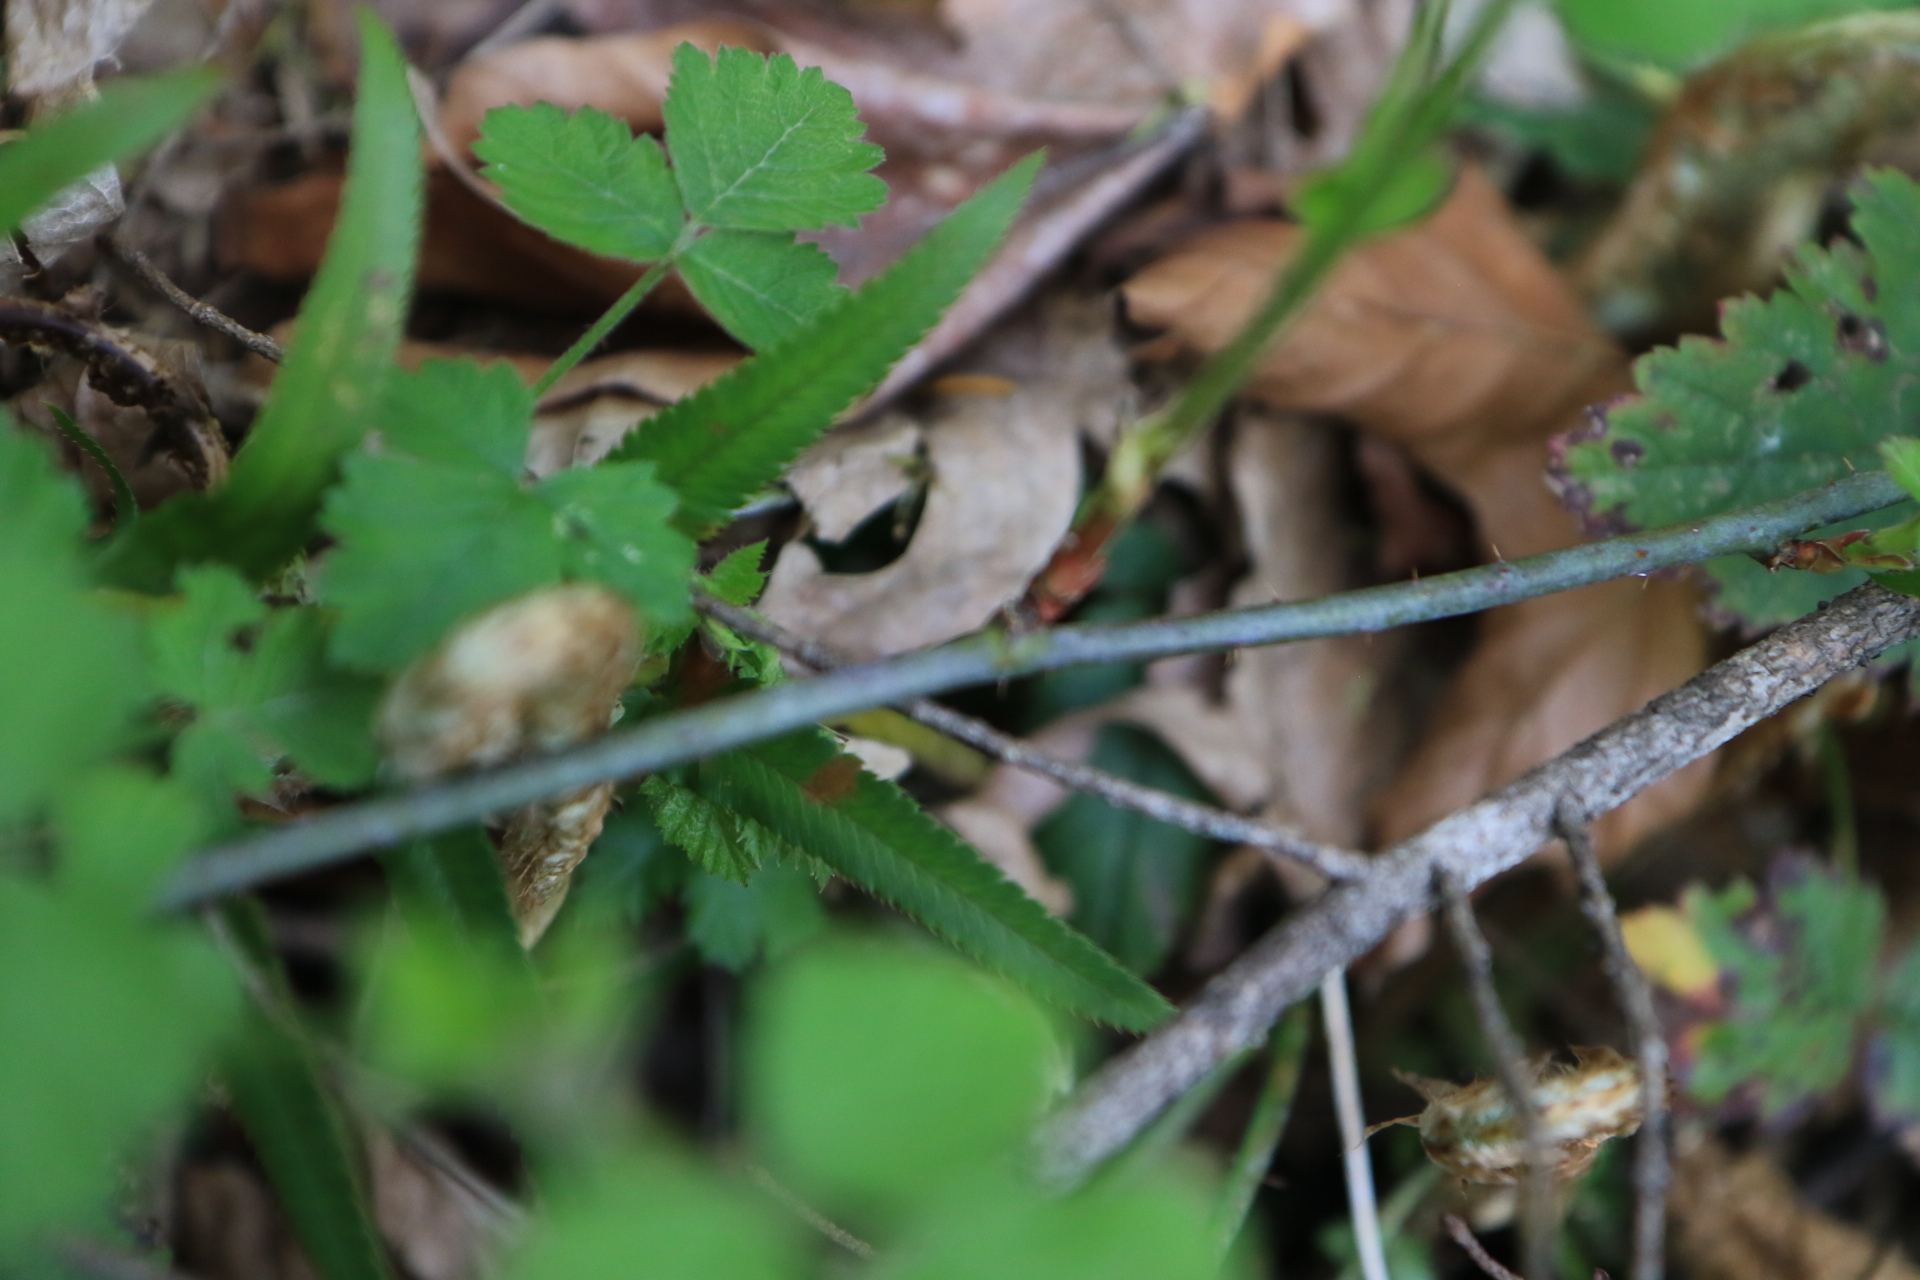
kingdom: Plantae
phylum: Tracheophyta
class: Magnoliopsida
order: Rosales
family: Rosaceae
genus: Rubus
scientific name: Rubus ursinus
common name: Pacific blackberry
